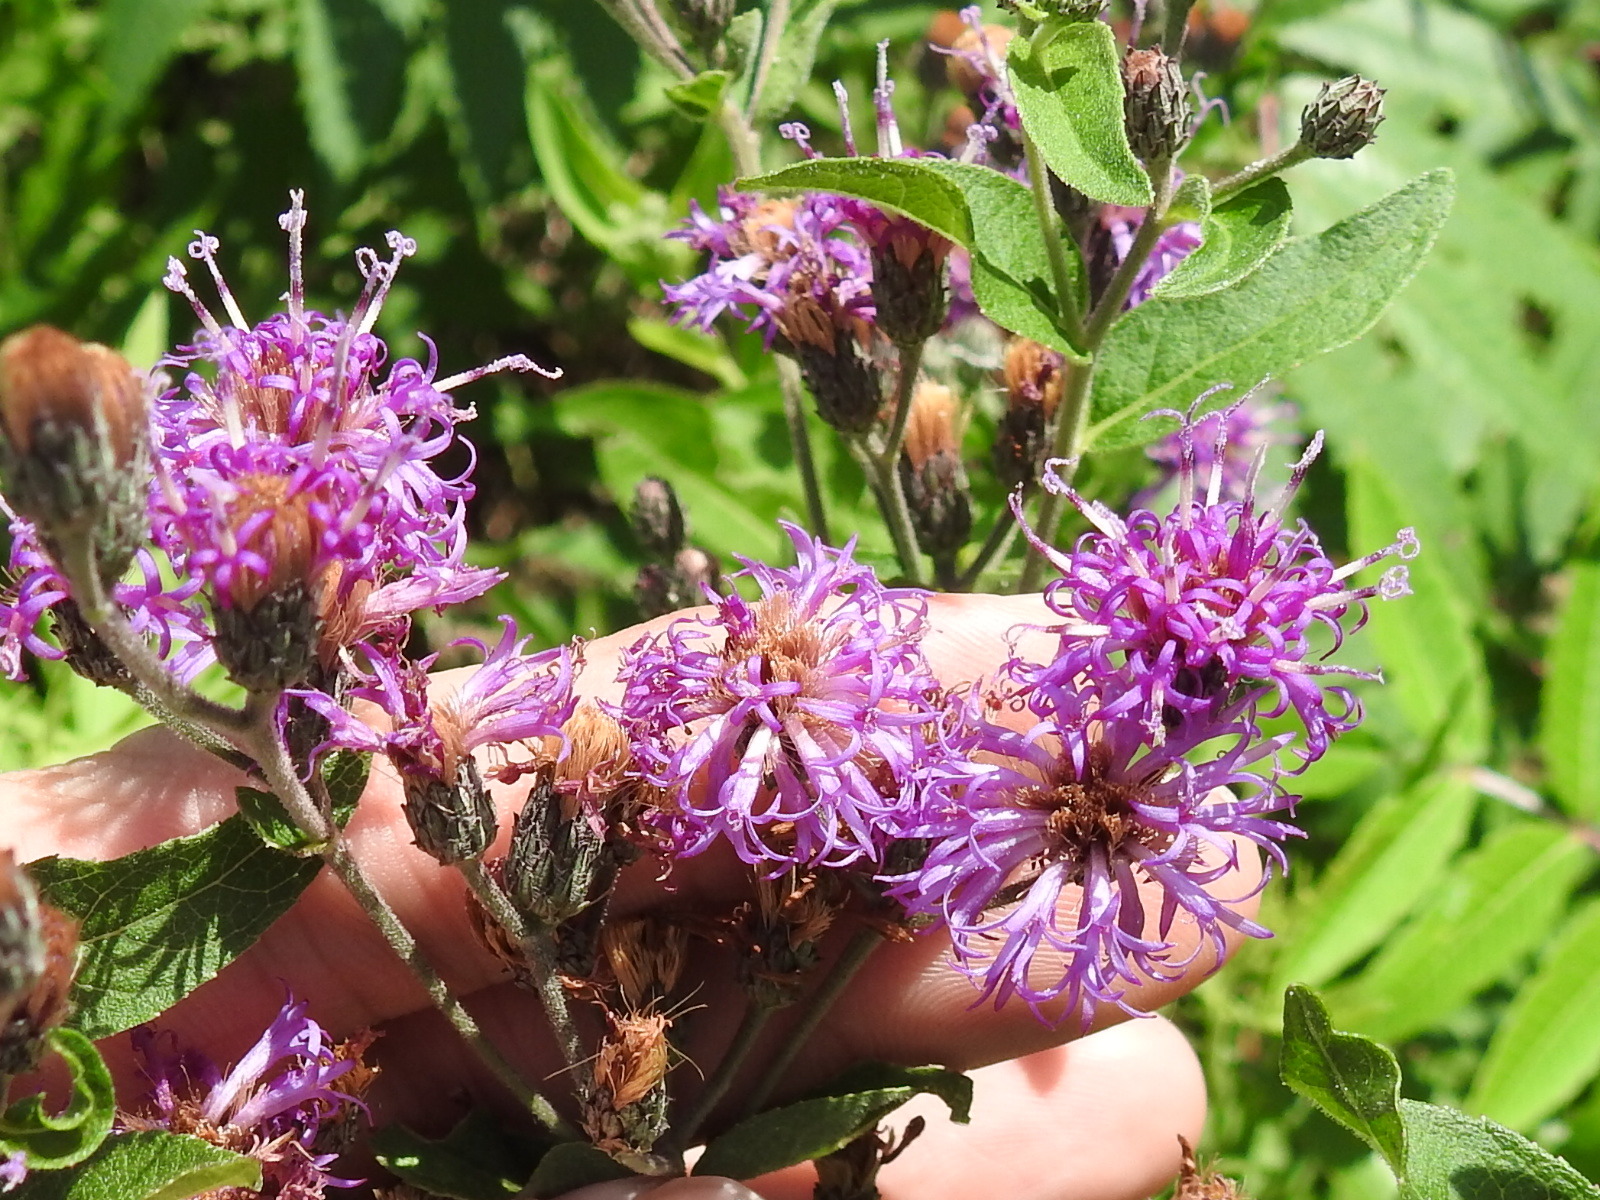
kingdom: Plantae
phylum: Tracheophyta
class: Magnoliopsida
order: Asterales
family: Asteraceae
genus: Vernonia
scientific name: Vernonia baldwinii
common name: Western ironweed
